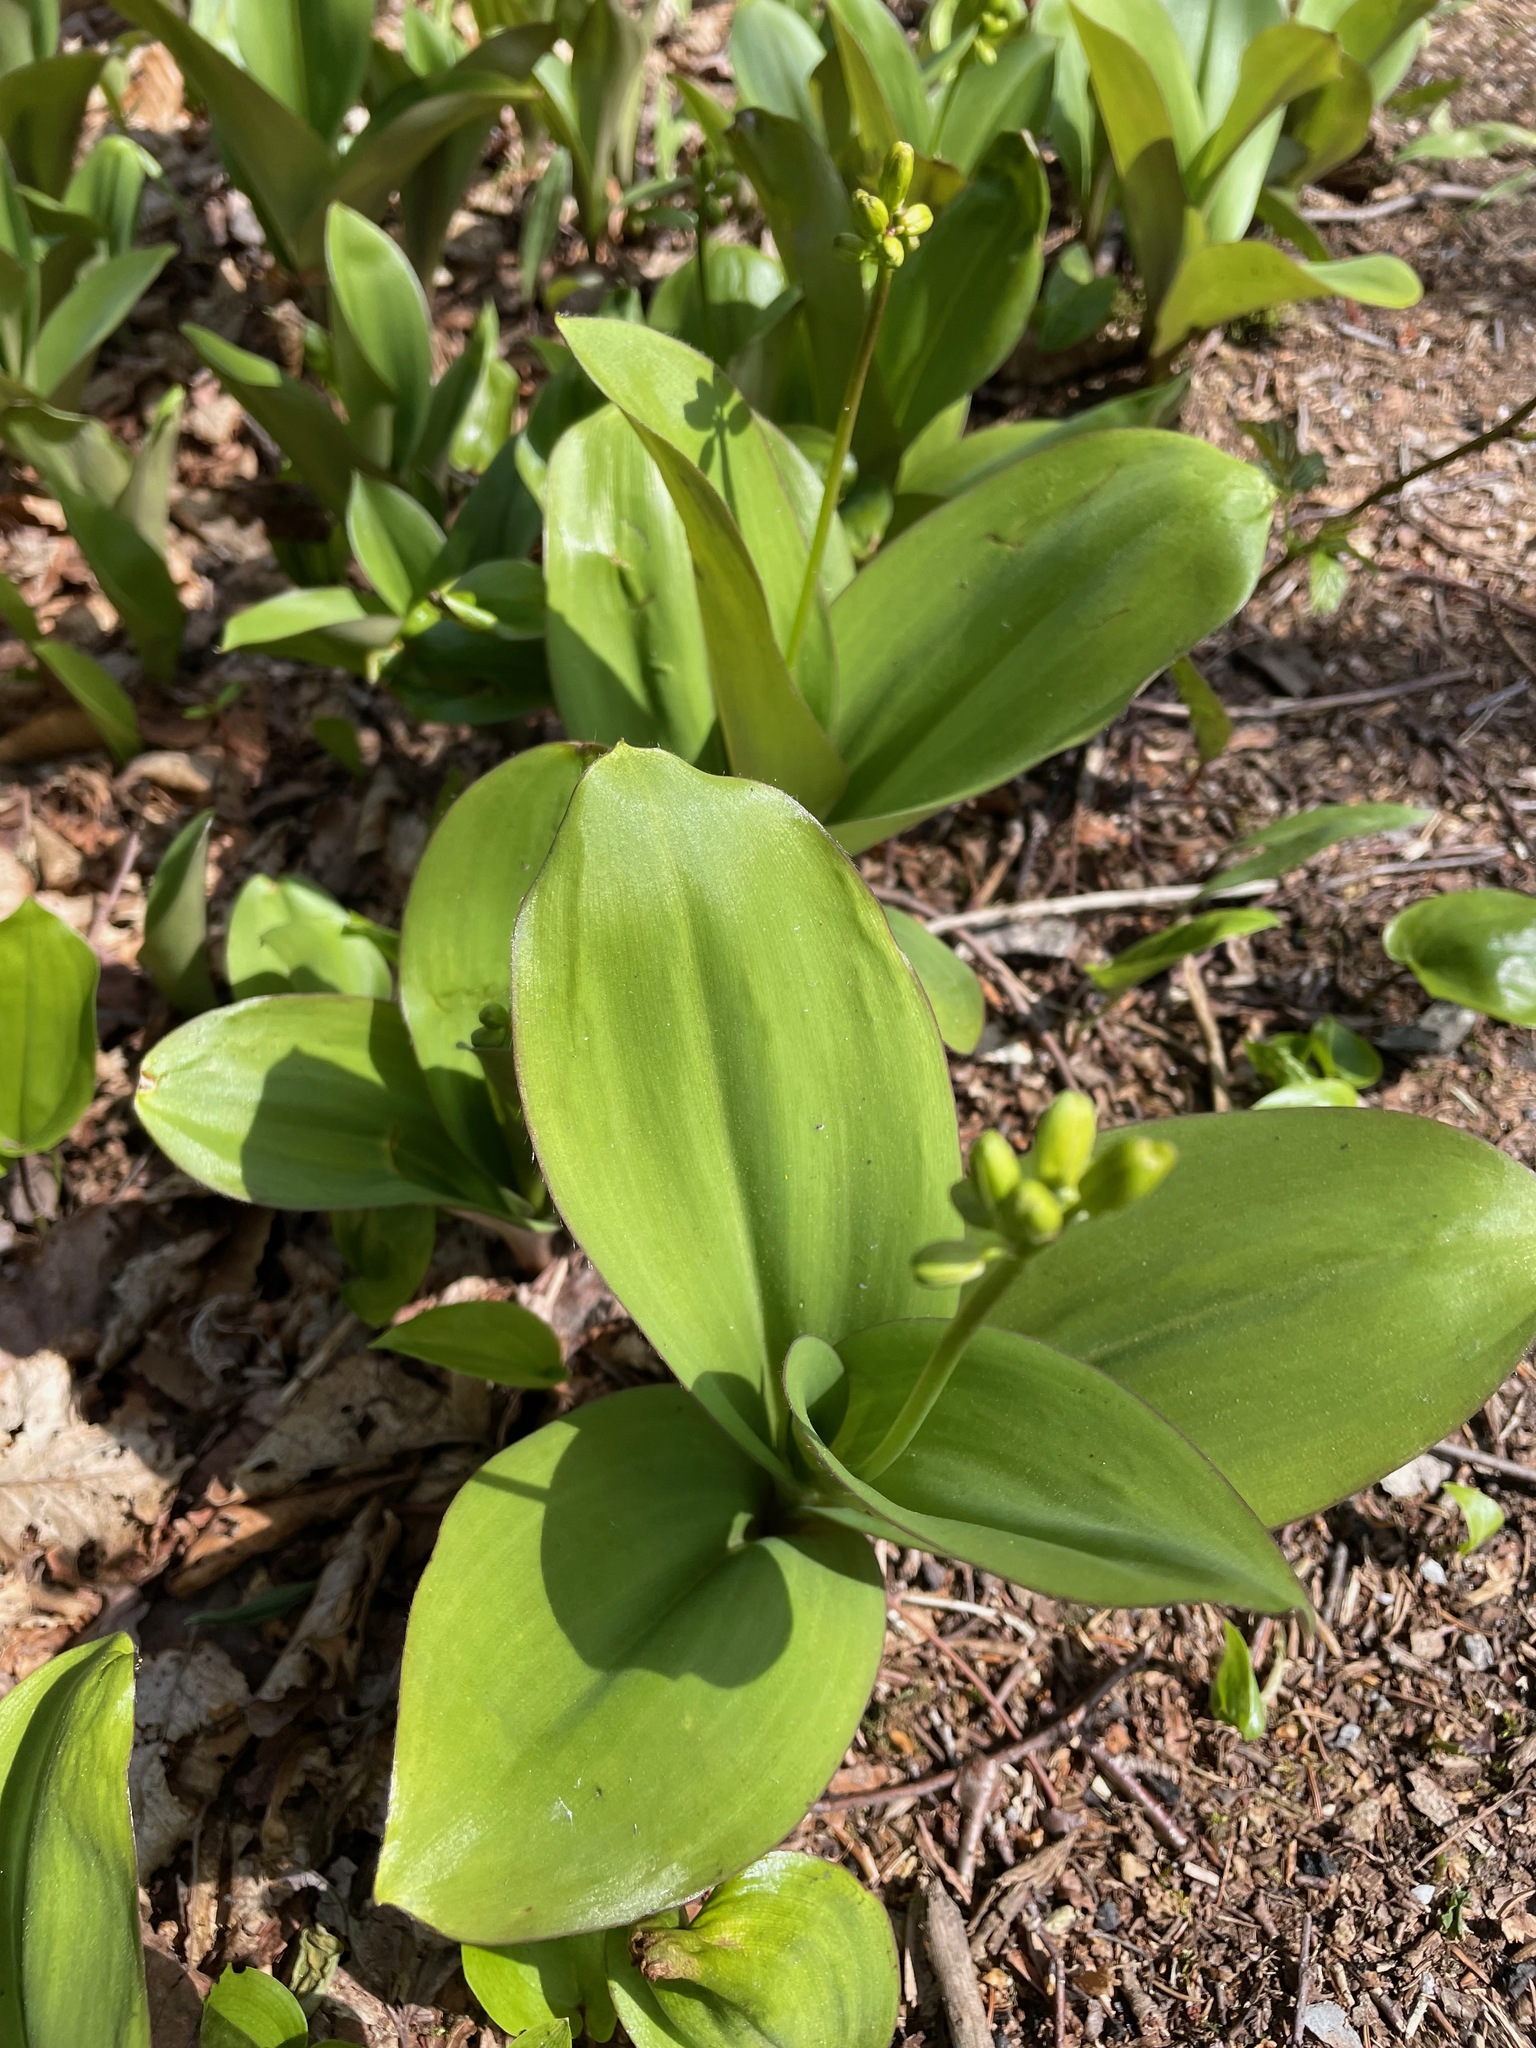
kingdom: Plantae
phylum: Tracheophyta
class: Liliopsida
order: Liliales
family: Liliaceae
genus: Clintonia
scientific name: Clintonia borealis
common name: Yellow clintonia
